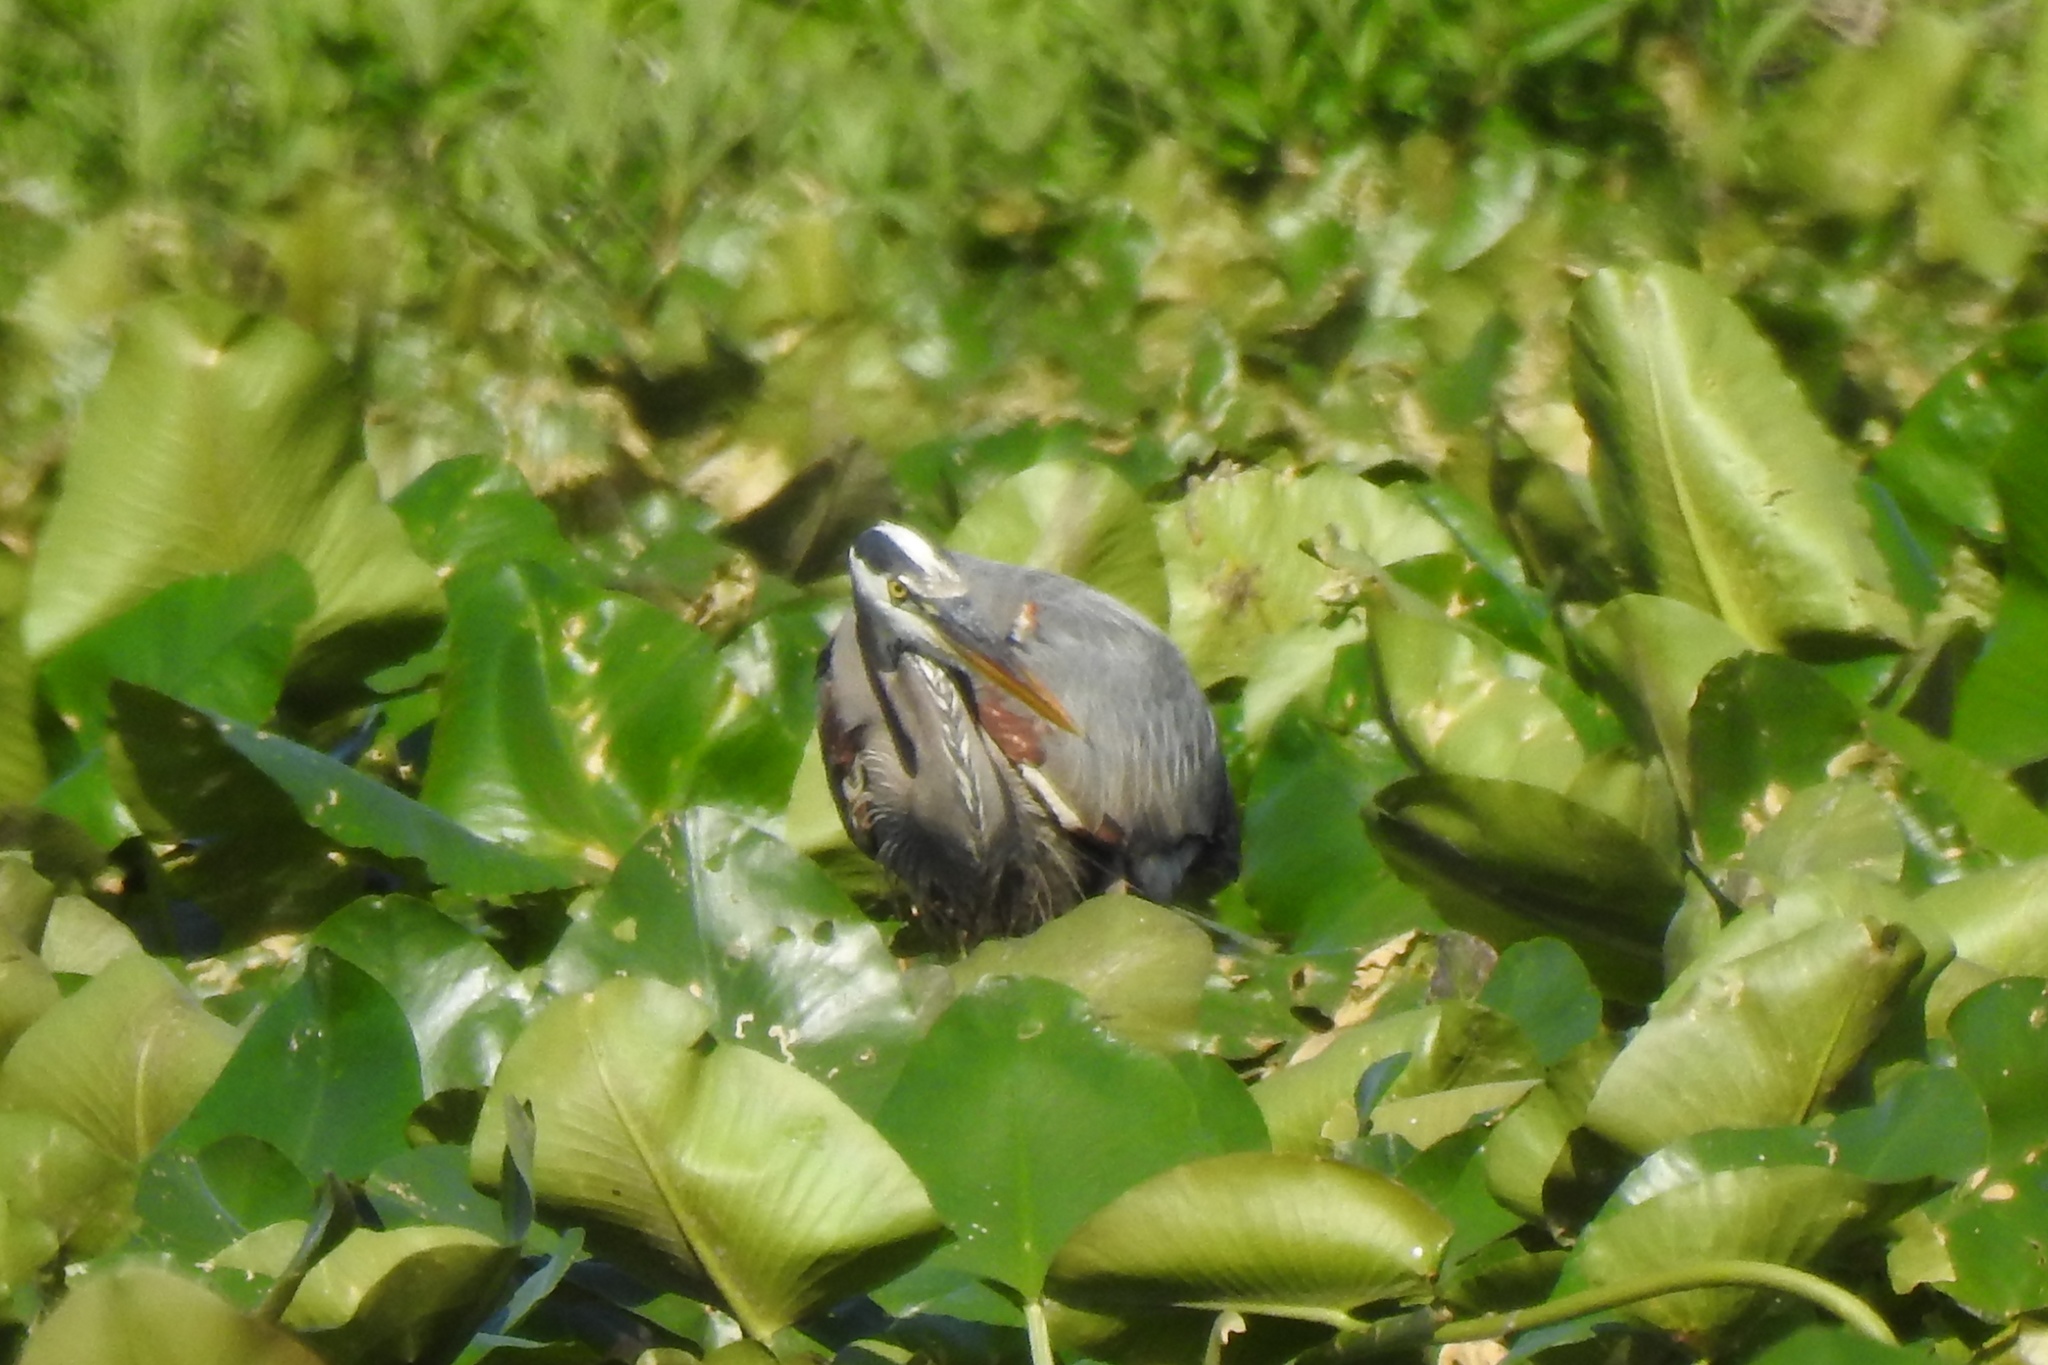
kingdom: Animalia
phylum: Chordata
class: Aves
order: Pelecaniformes
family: Ardeidae
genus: Ardea
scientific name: Ardea herodias
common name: Great blue heron
